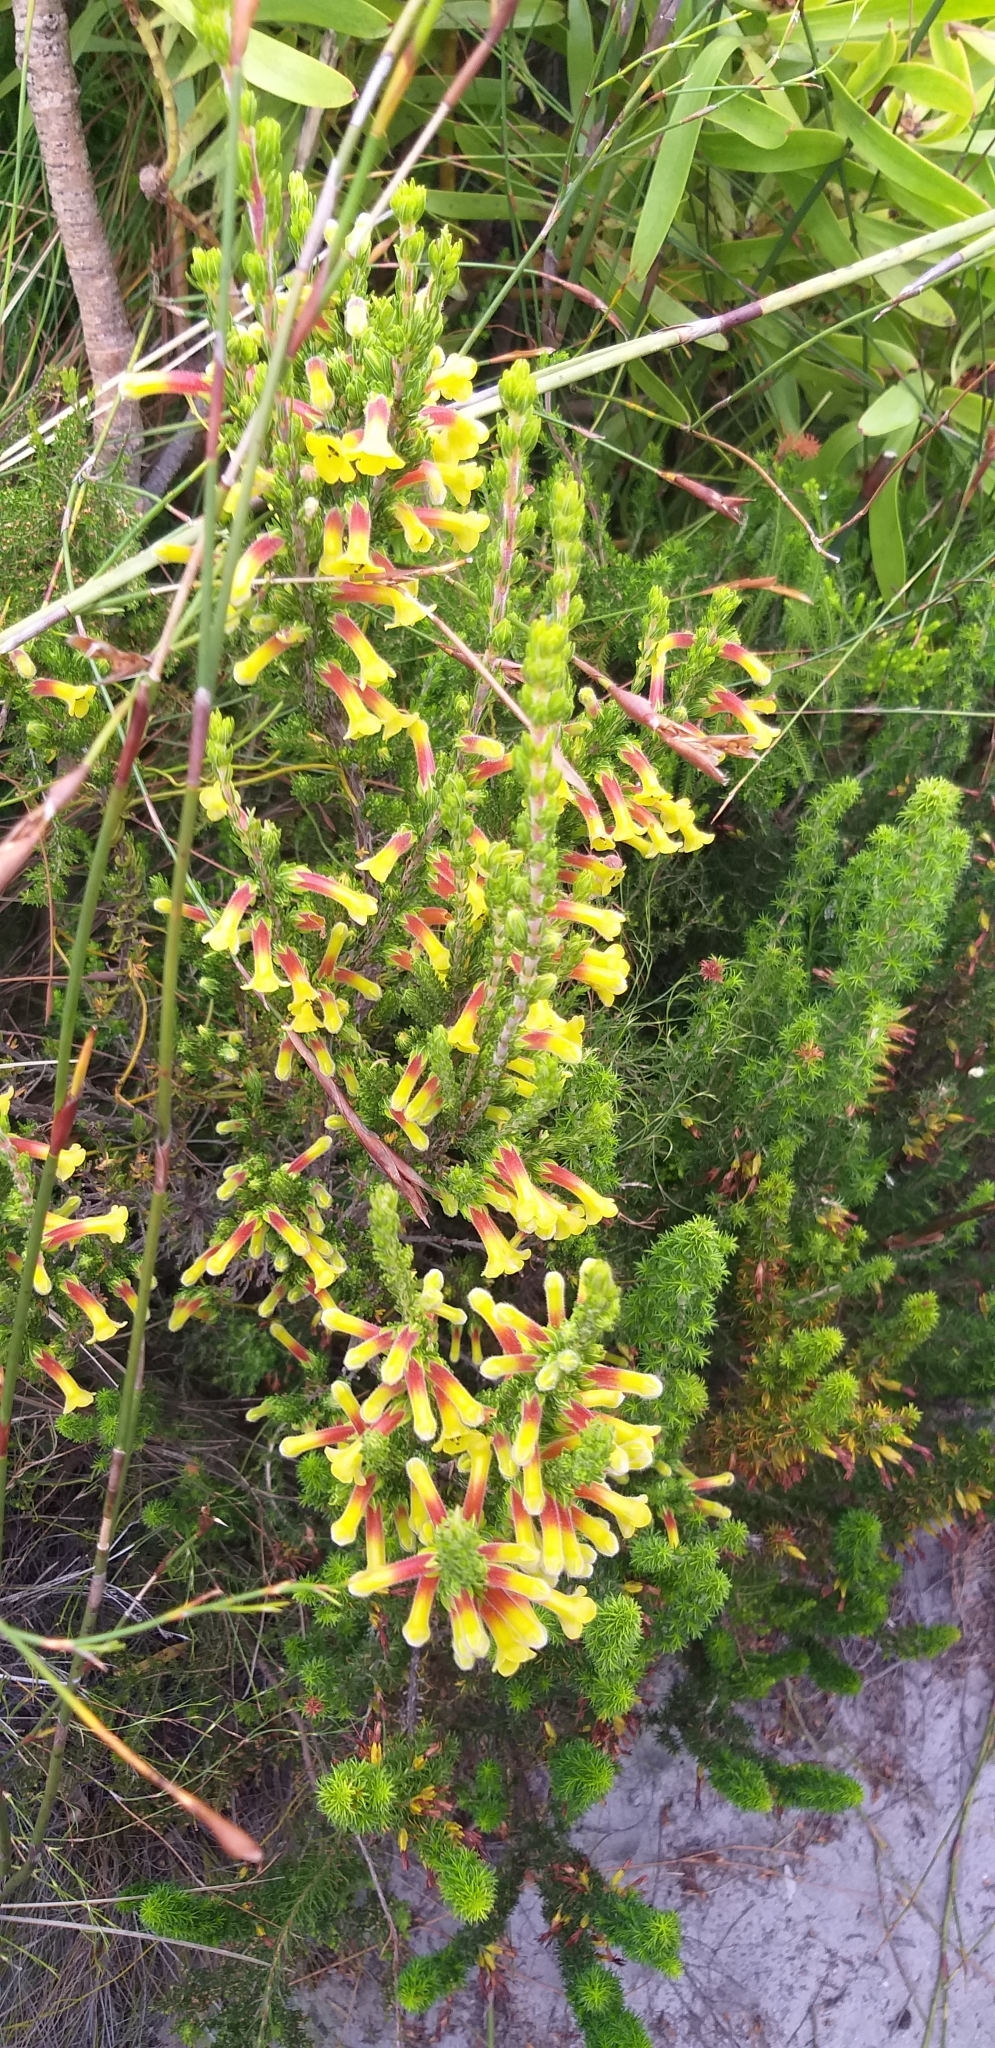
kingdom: Plantae
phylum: Tracheophyta
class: Magnoliopsida
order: Ericales
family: Ericaceae
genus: Erica
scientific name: Erica macowanii
